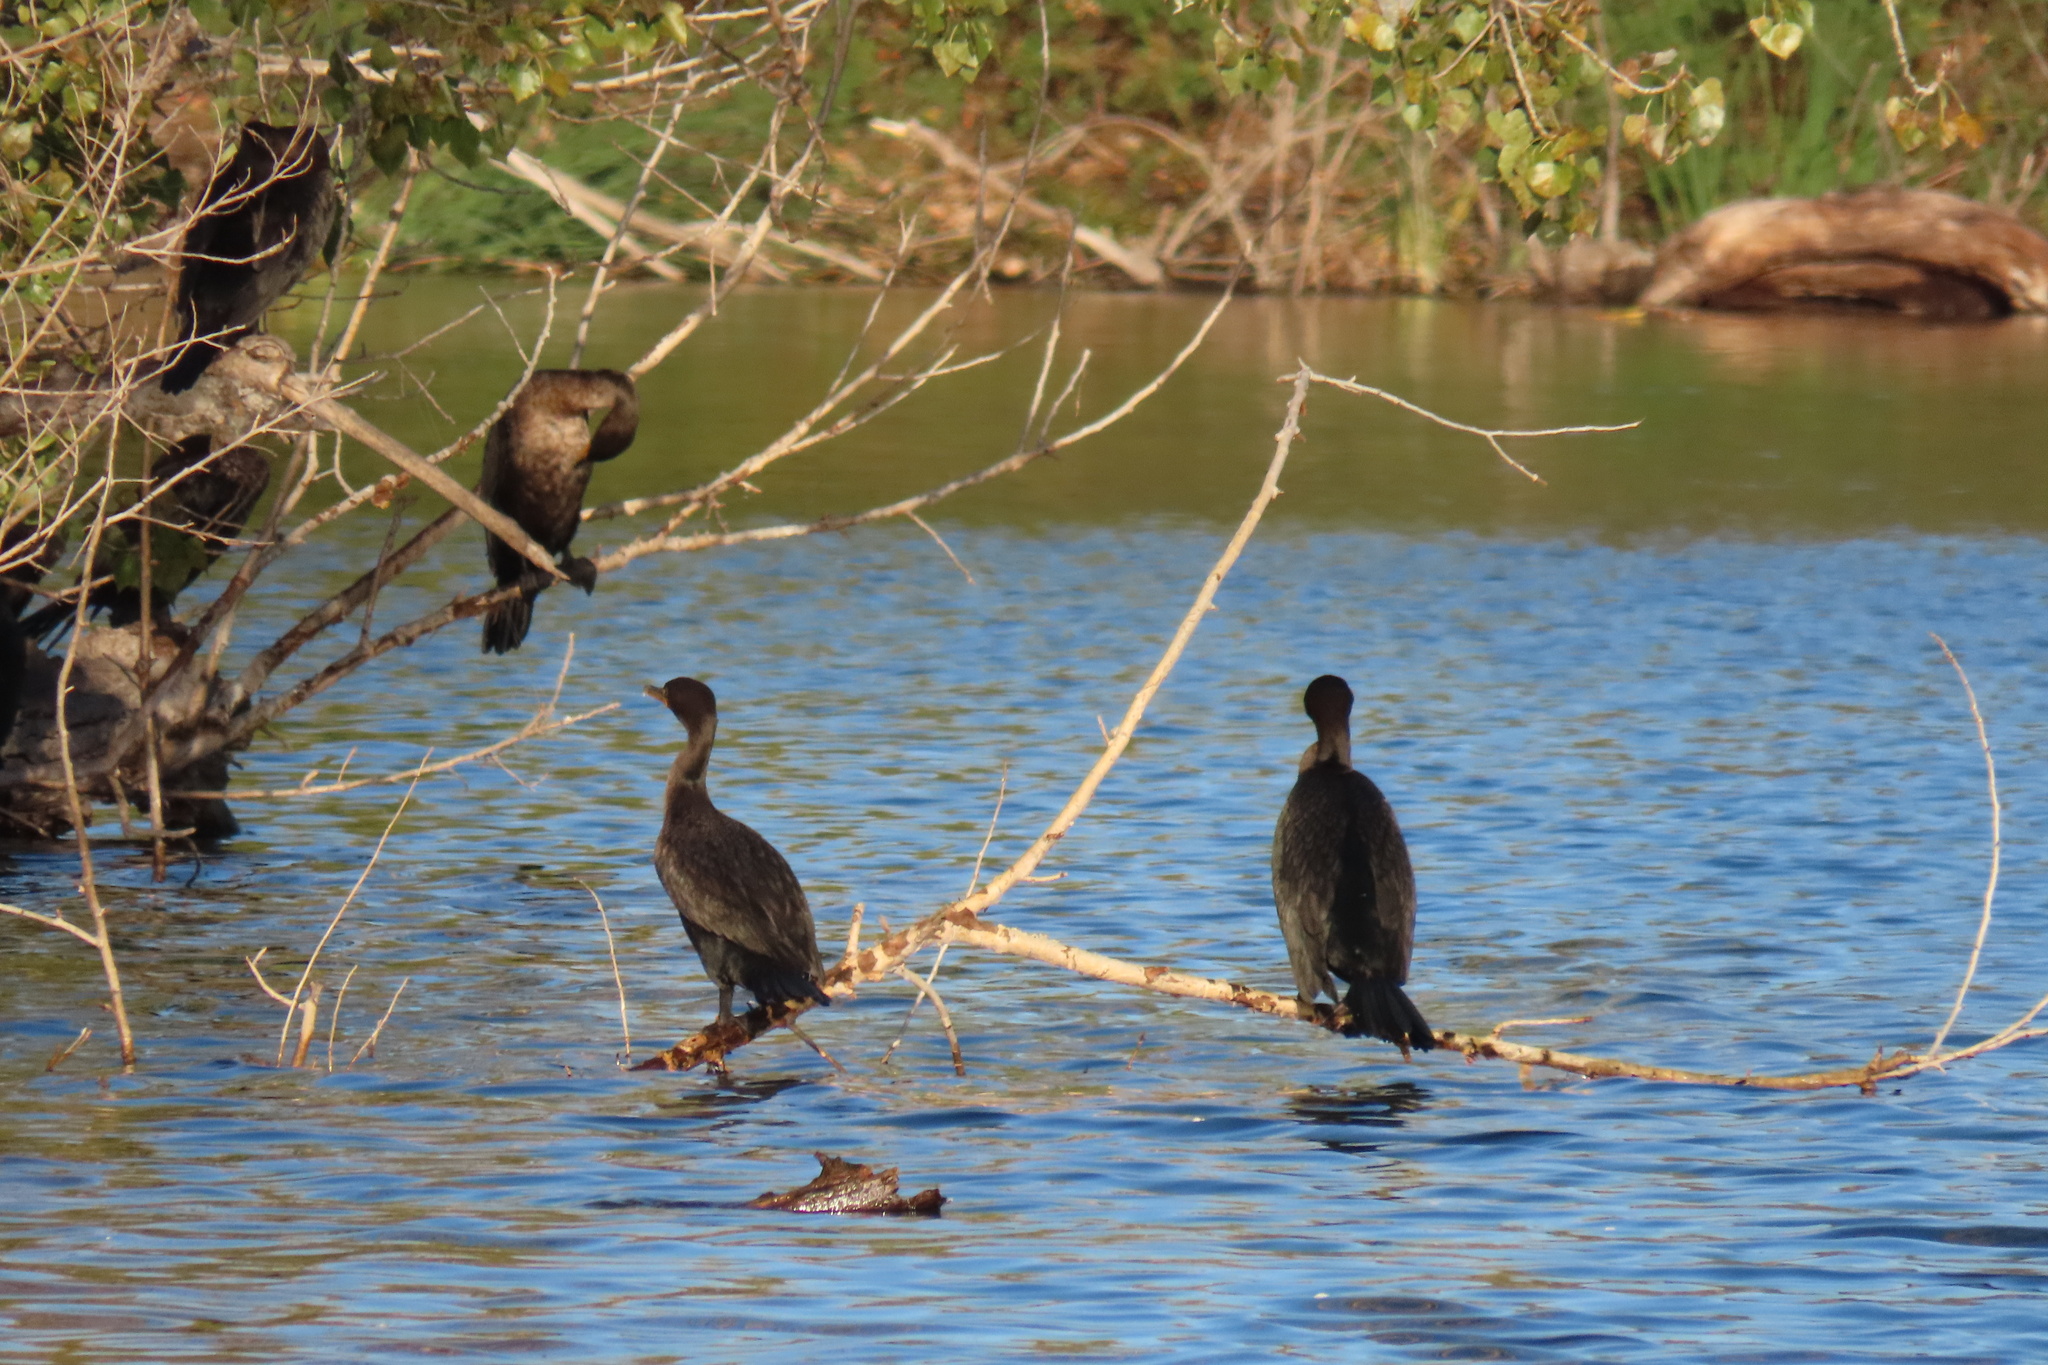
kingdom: Animalia
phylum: Chordata
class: Aves
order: Suliformes
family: Phalacrocoracidae
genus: Phalacrocorax
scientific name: Phalacrocorax auritus
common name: Double-crested cormorant
